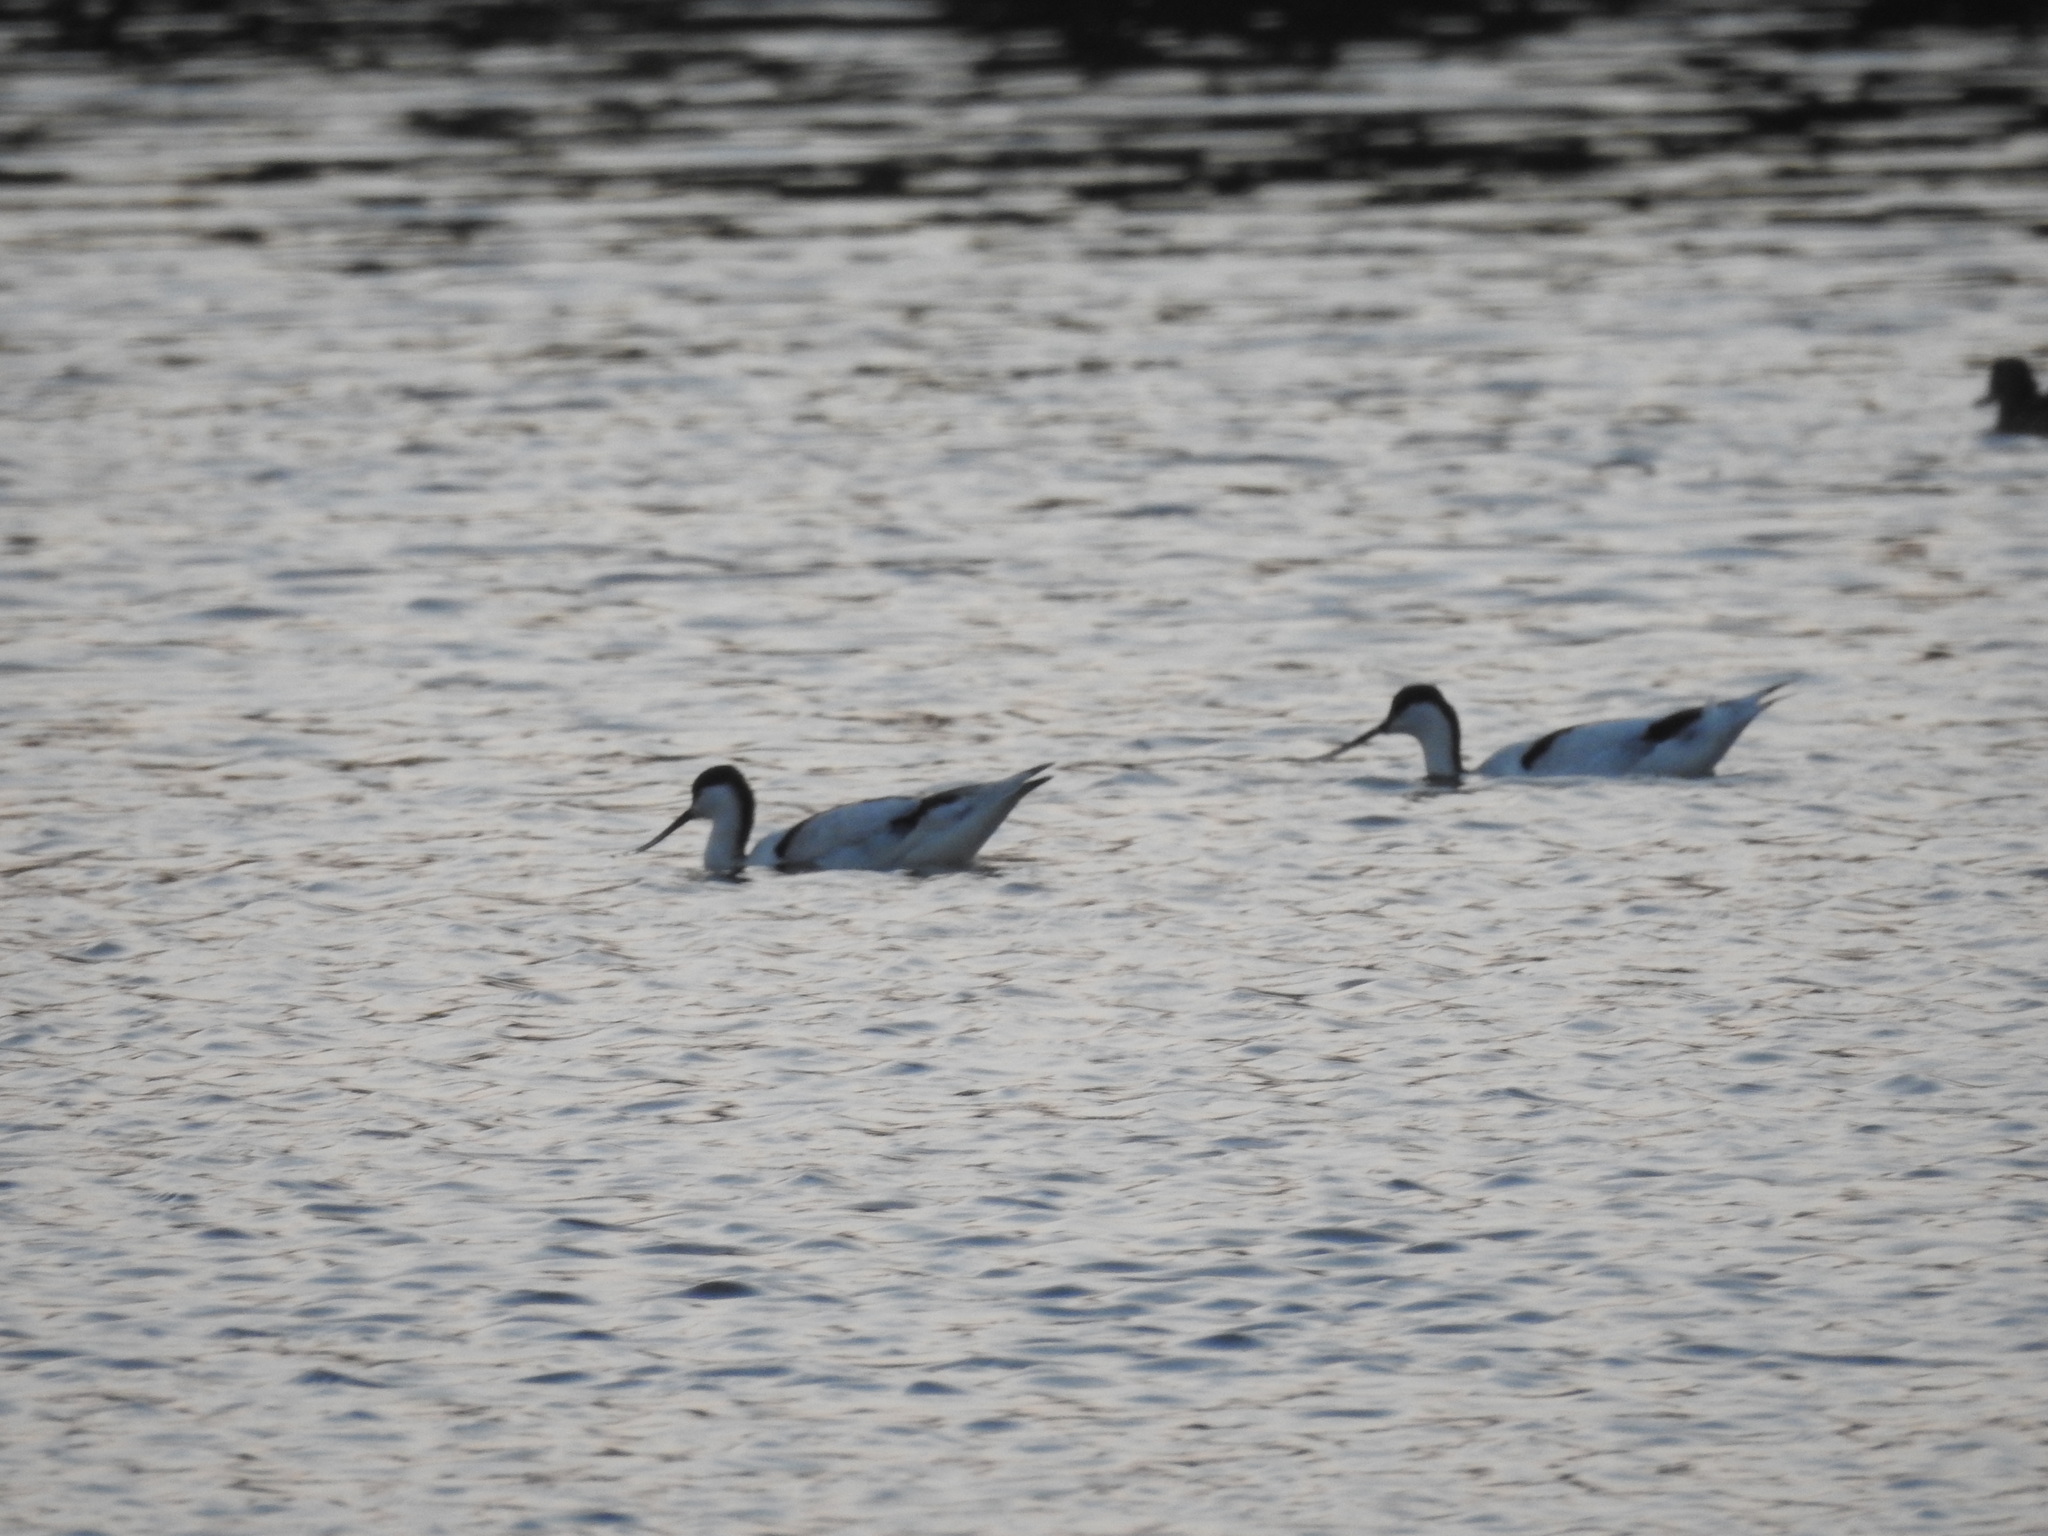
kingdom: Animalia
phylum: Chordata
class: Aves
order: Charadriiformes
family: Recurvirostridae
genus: Recurvirostra
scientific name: Recurvirostra avosetta
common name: Pied avocet
